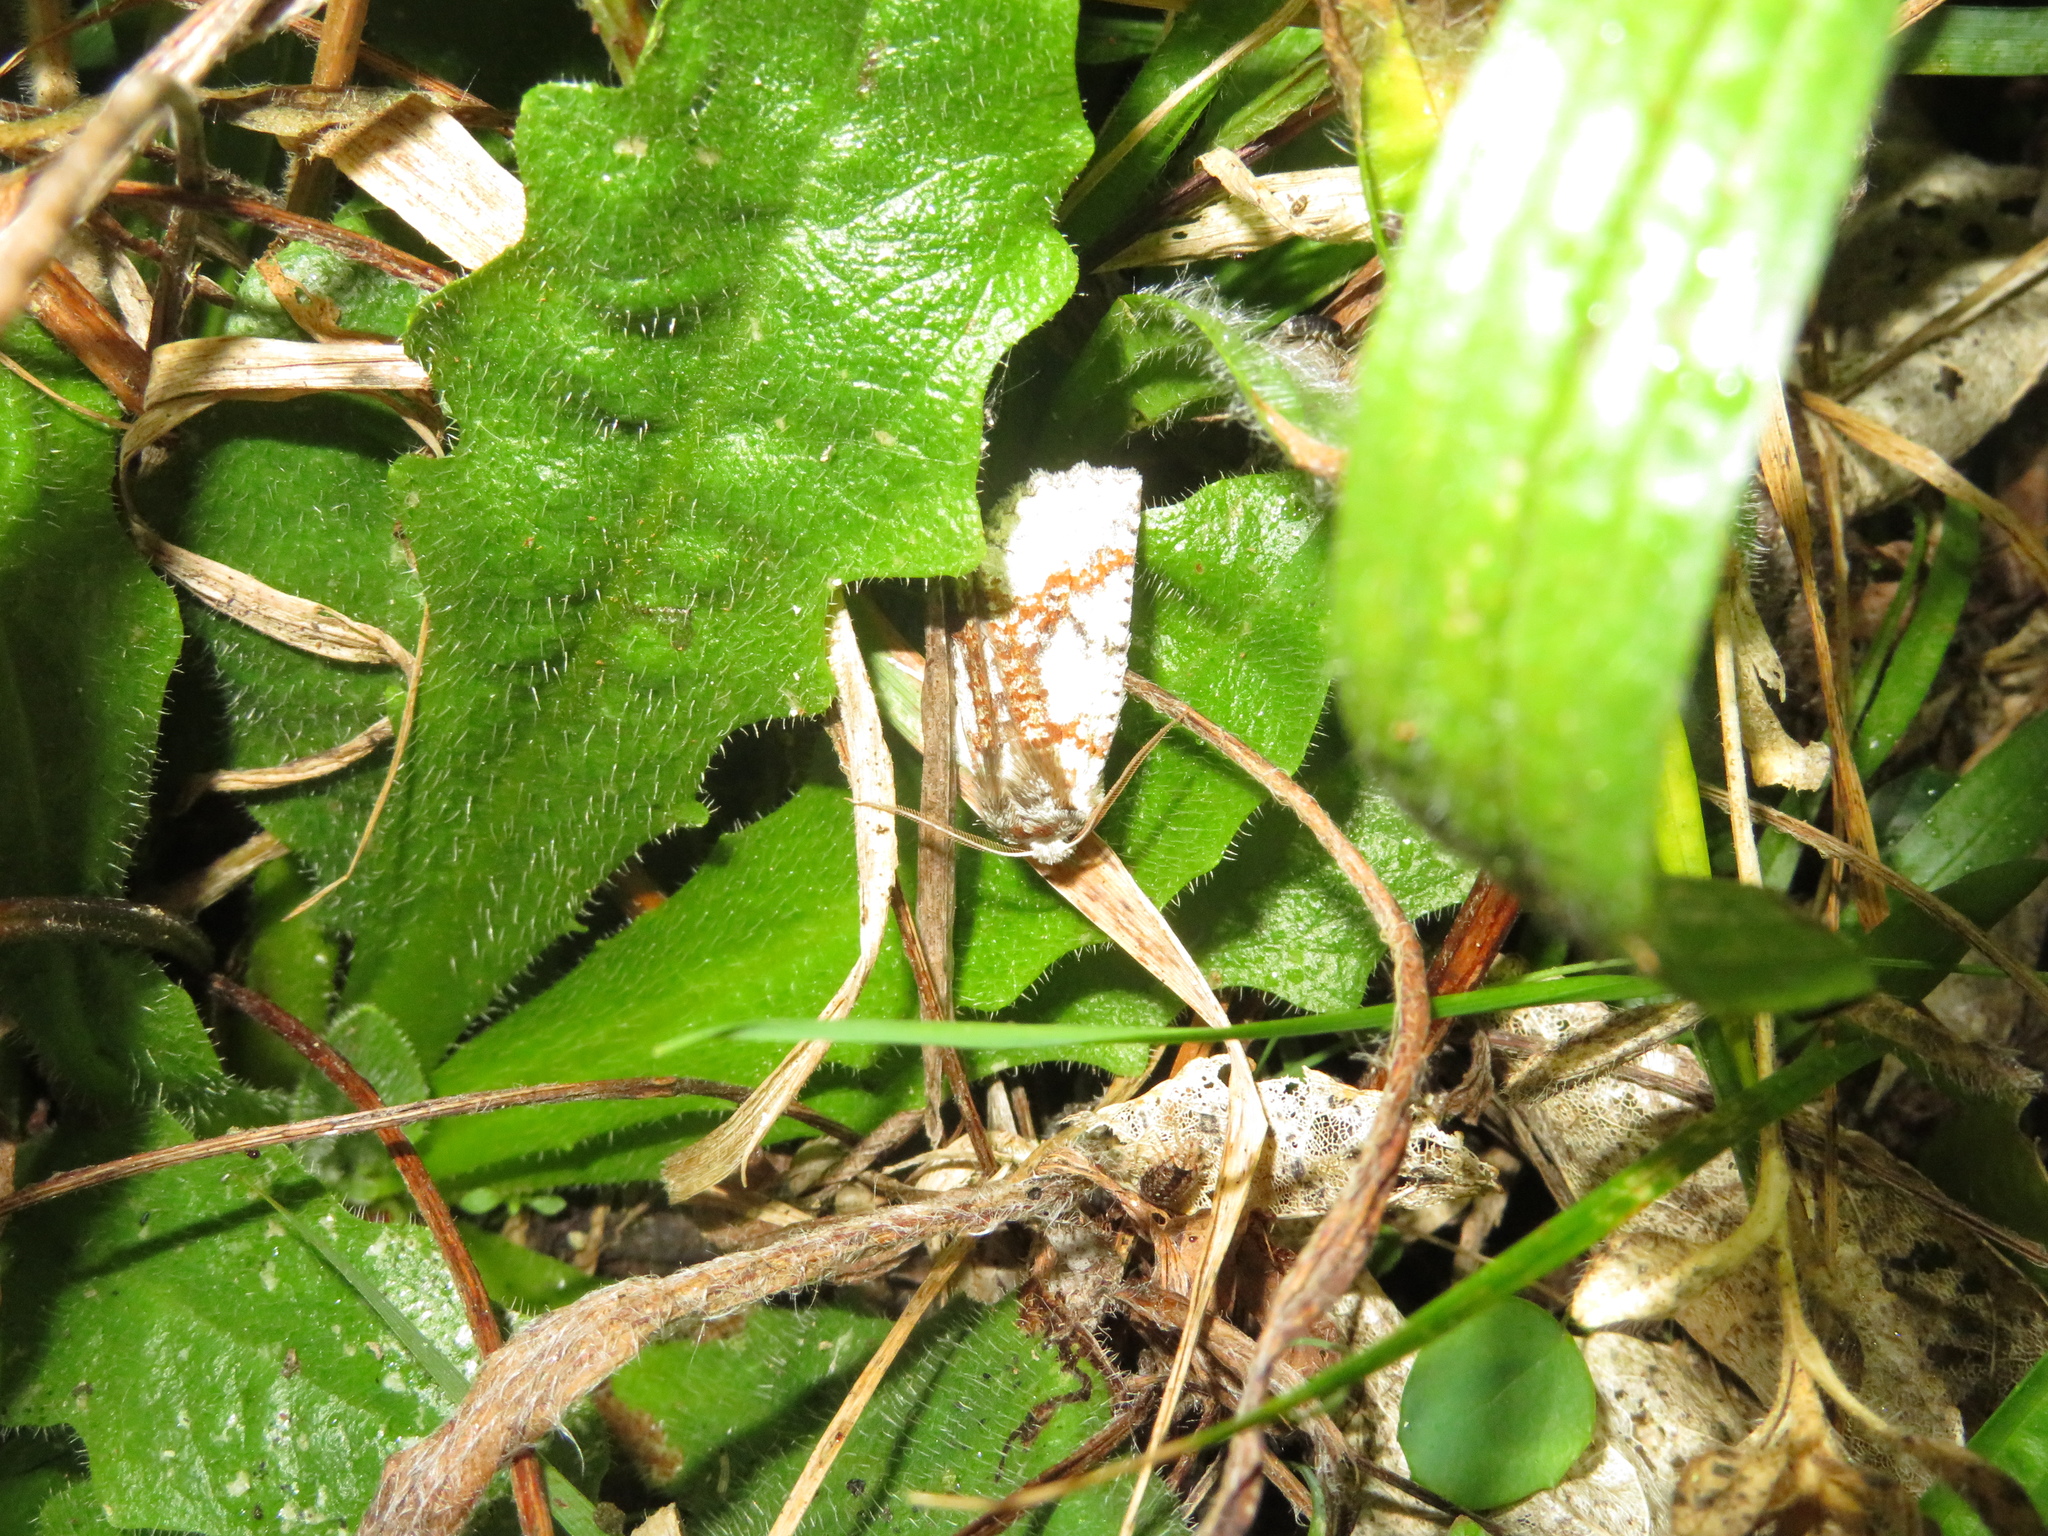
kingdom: Animalia
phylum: Arthropoda
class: Insecta
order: Lepidoptera
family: Geometridae
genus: Declana
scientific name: Declana floccosa
